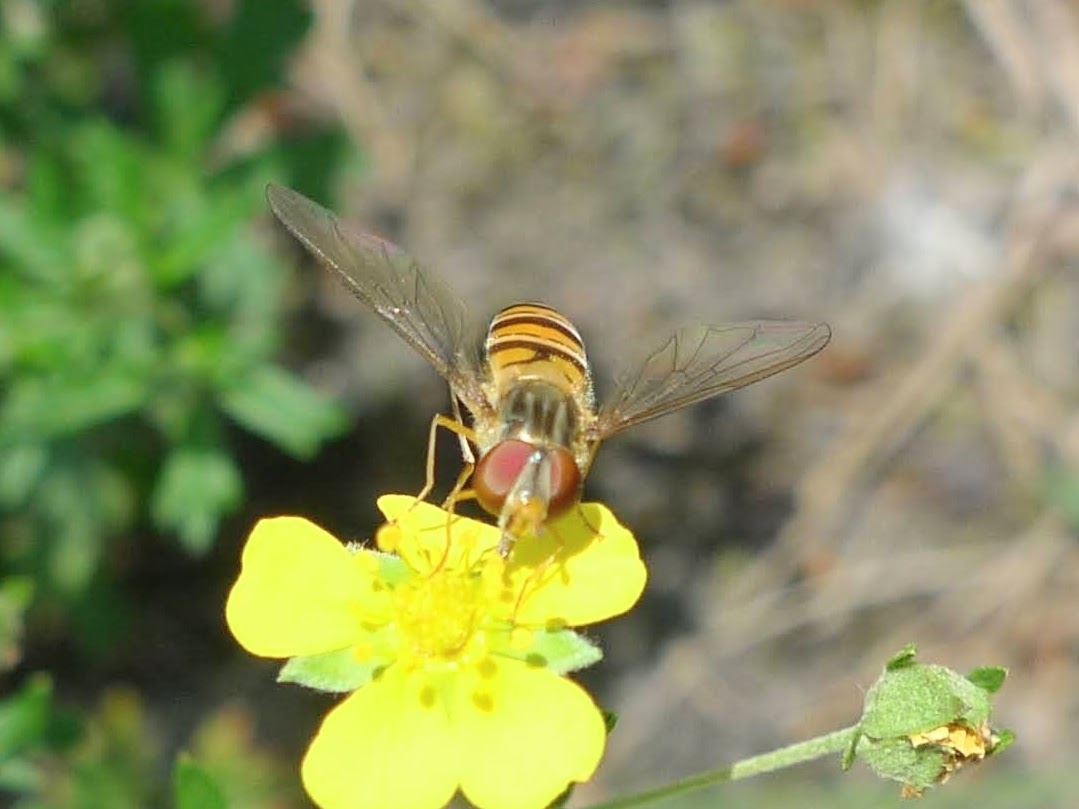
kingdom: Animalia
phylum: Arthropoda
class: Insecta
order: Diptera
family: Syrphidae
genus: Episyrphus
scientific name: Episyrphus balteatus
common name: Marmalade hoverfly
